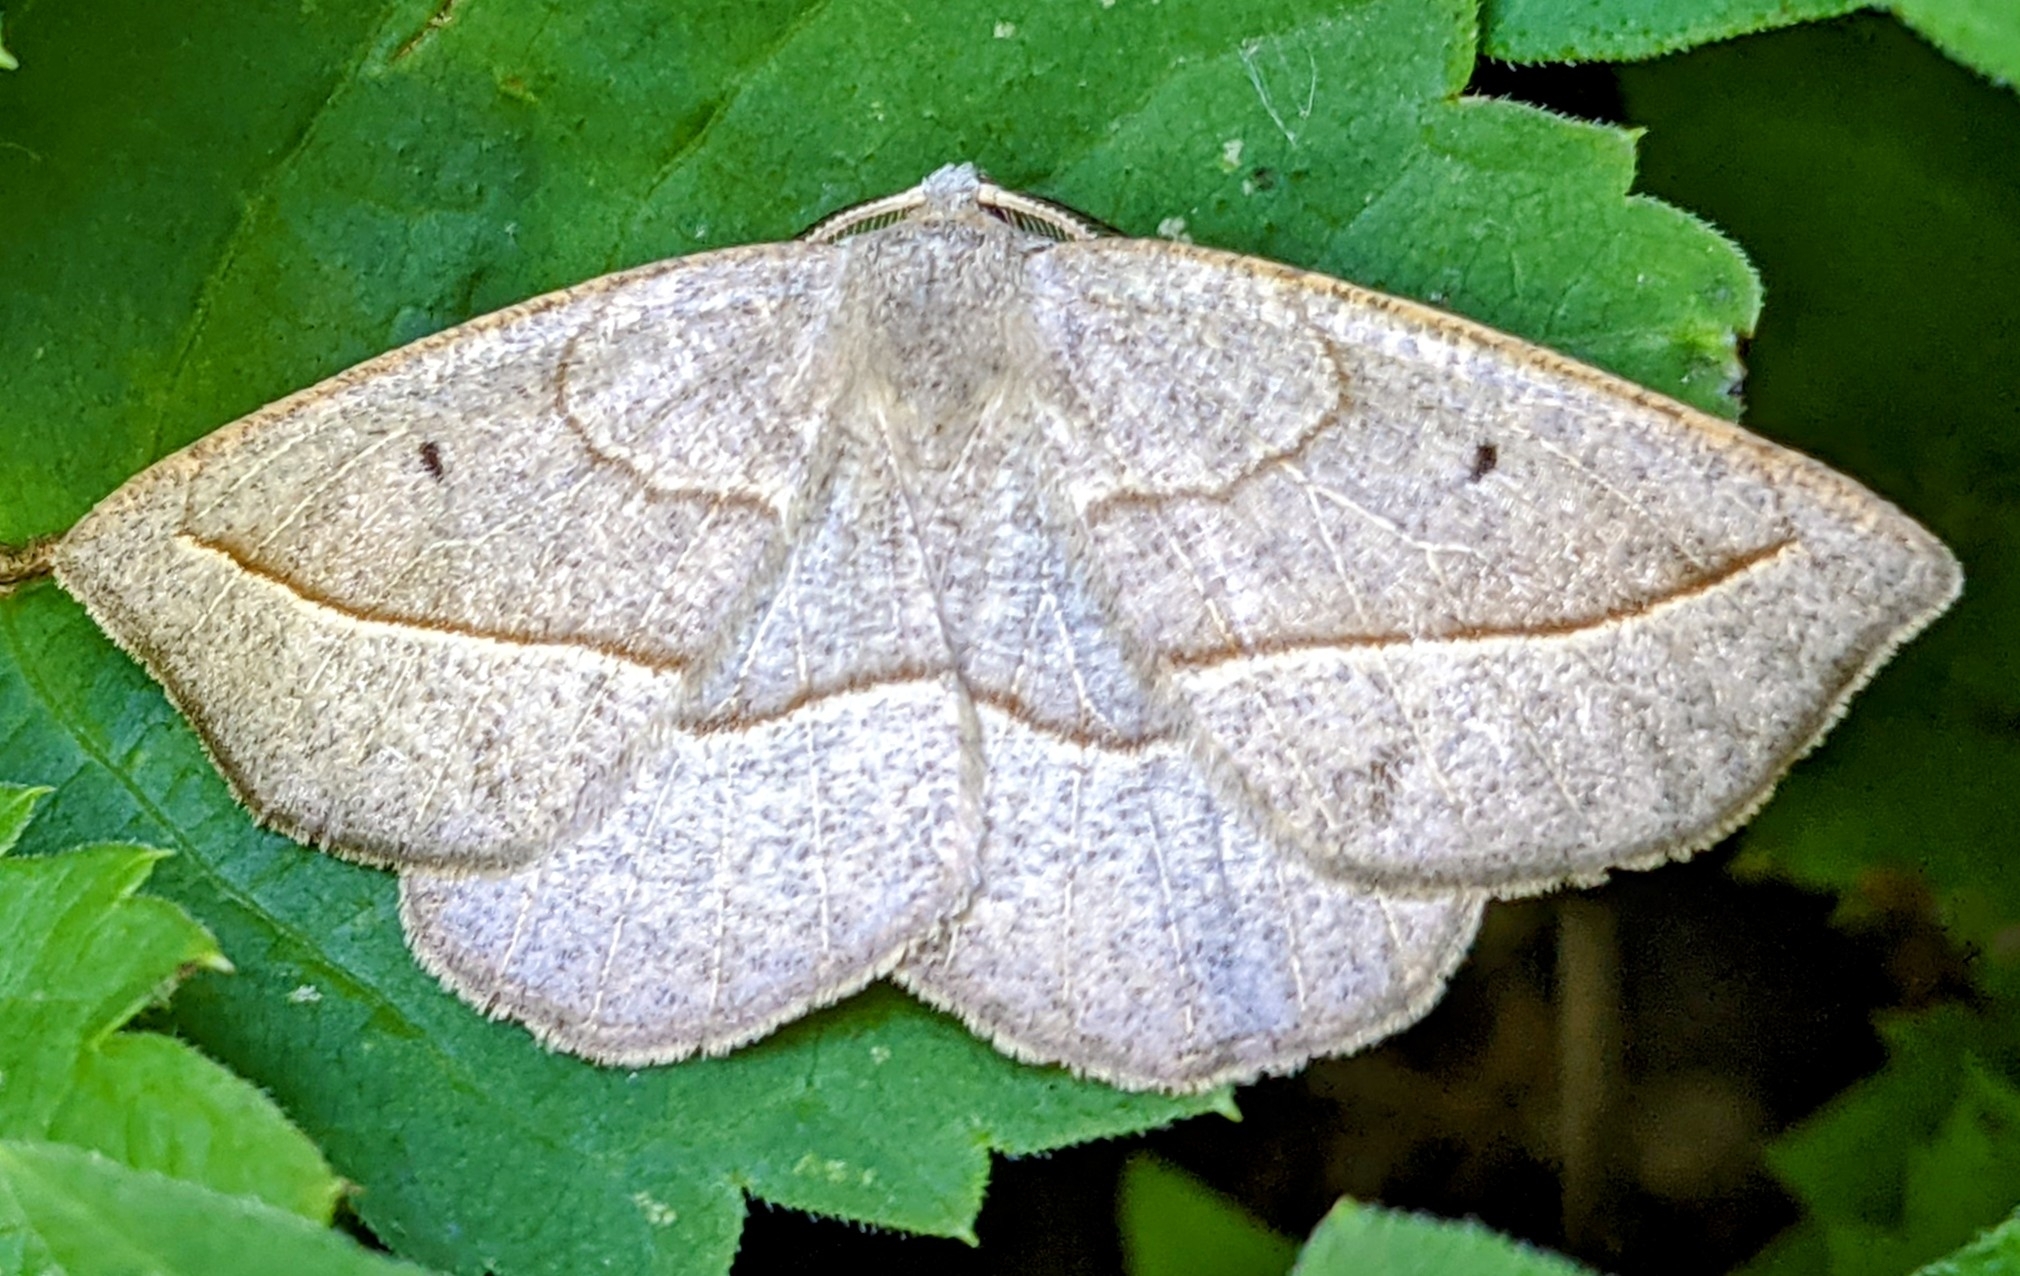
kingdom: Animalia
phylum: Arthropoda
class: Insecta
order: Lepidoptera
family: Geometridae
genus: Eusarca
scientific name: Eusarca confusaria
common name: Confused eusarca
